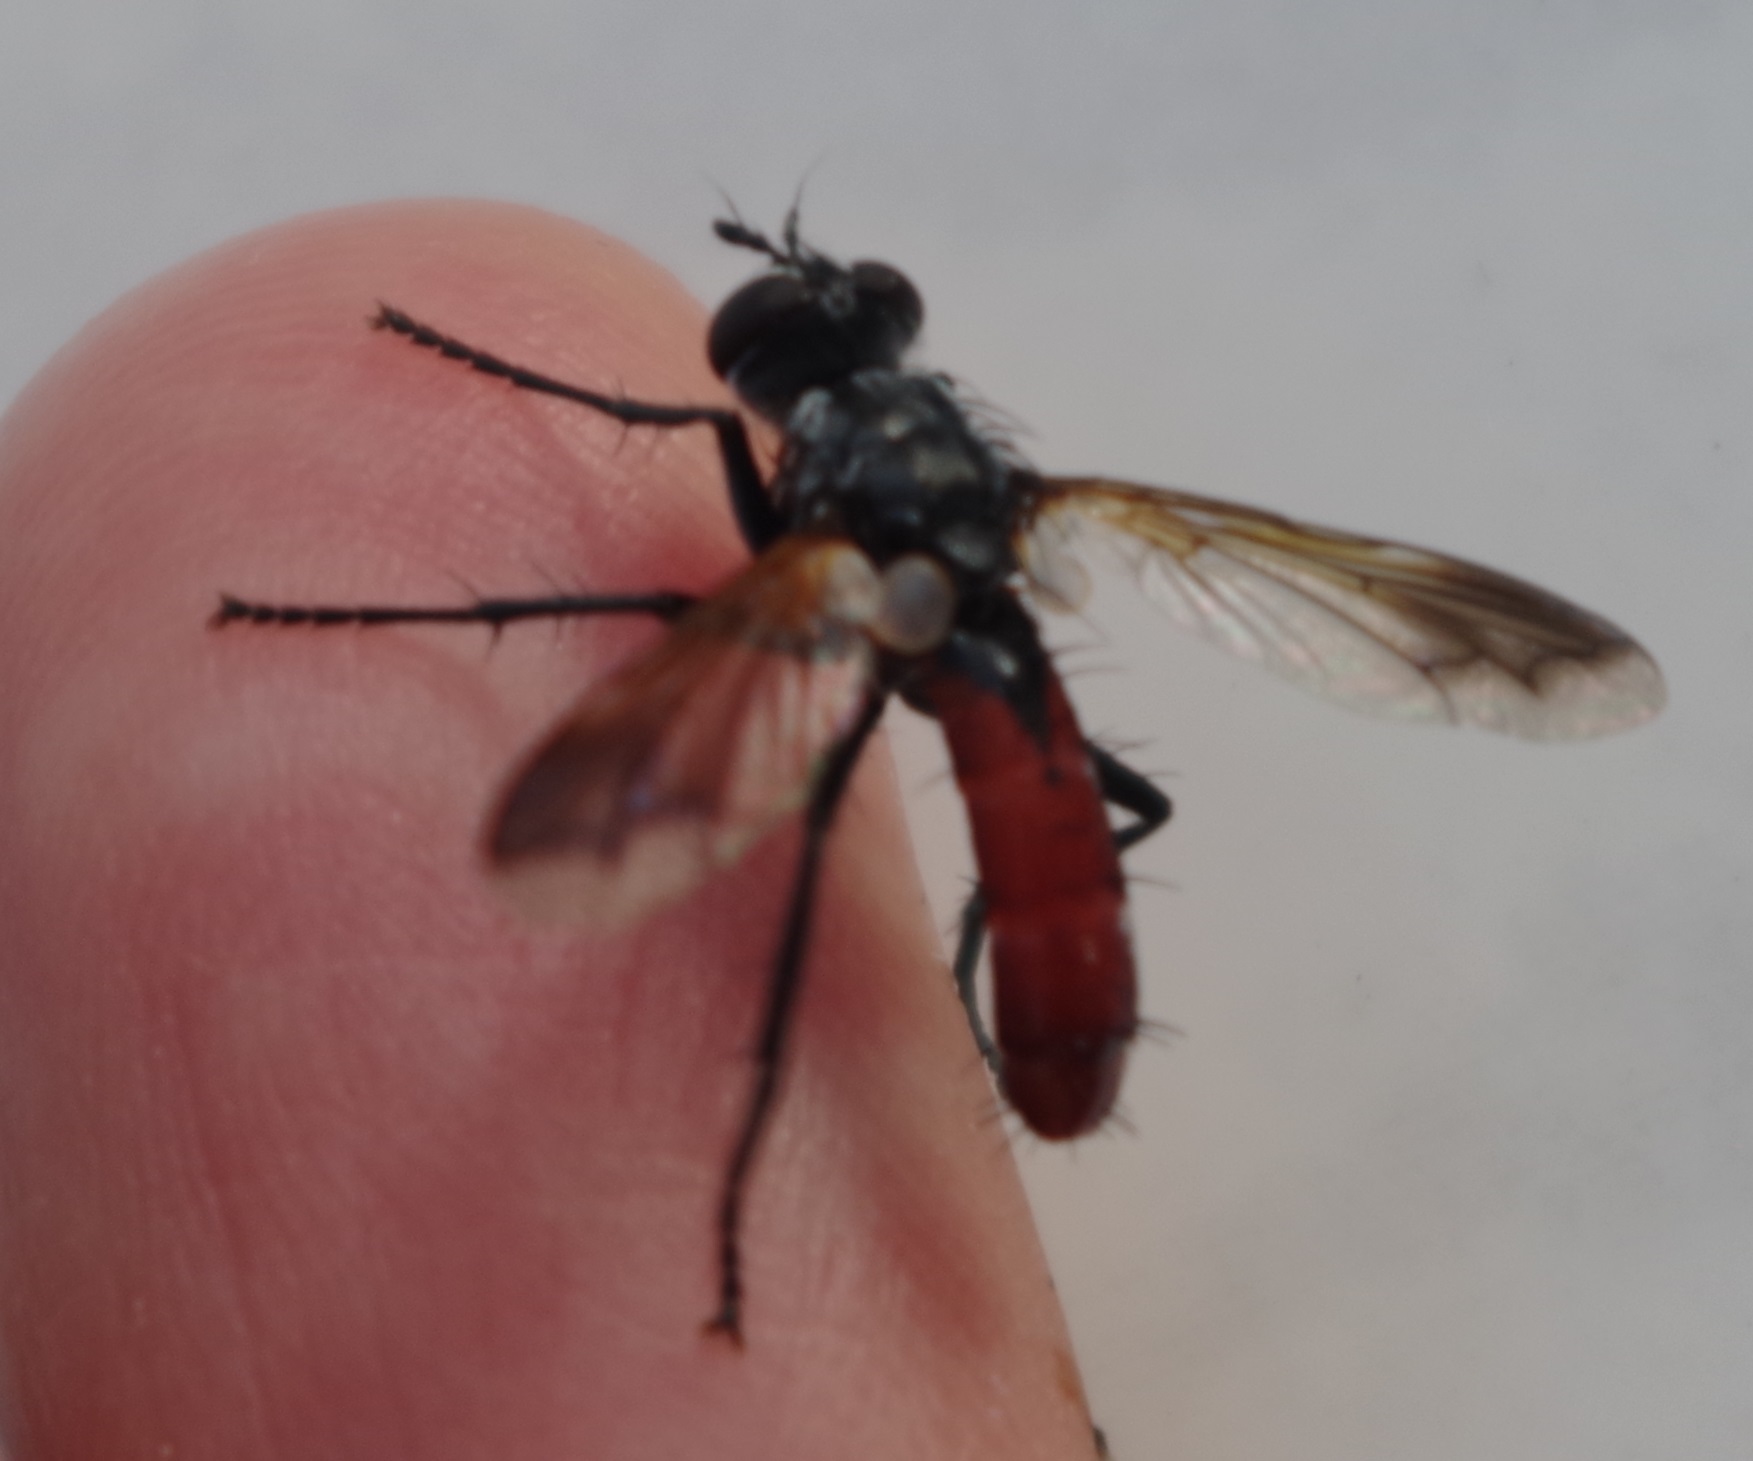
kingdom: Animalia
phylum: Arthropoda
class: Insecta
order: Diptera
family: Tachinidae
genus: Cylindromyia
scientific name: Cylindromyia bicolor
